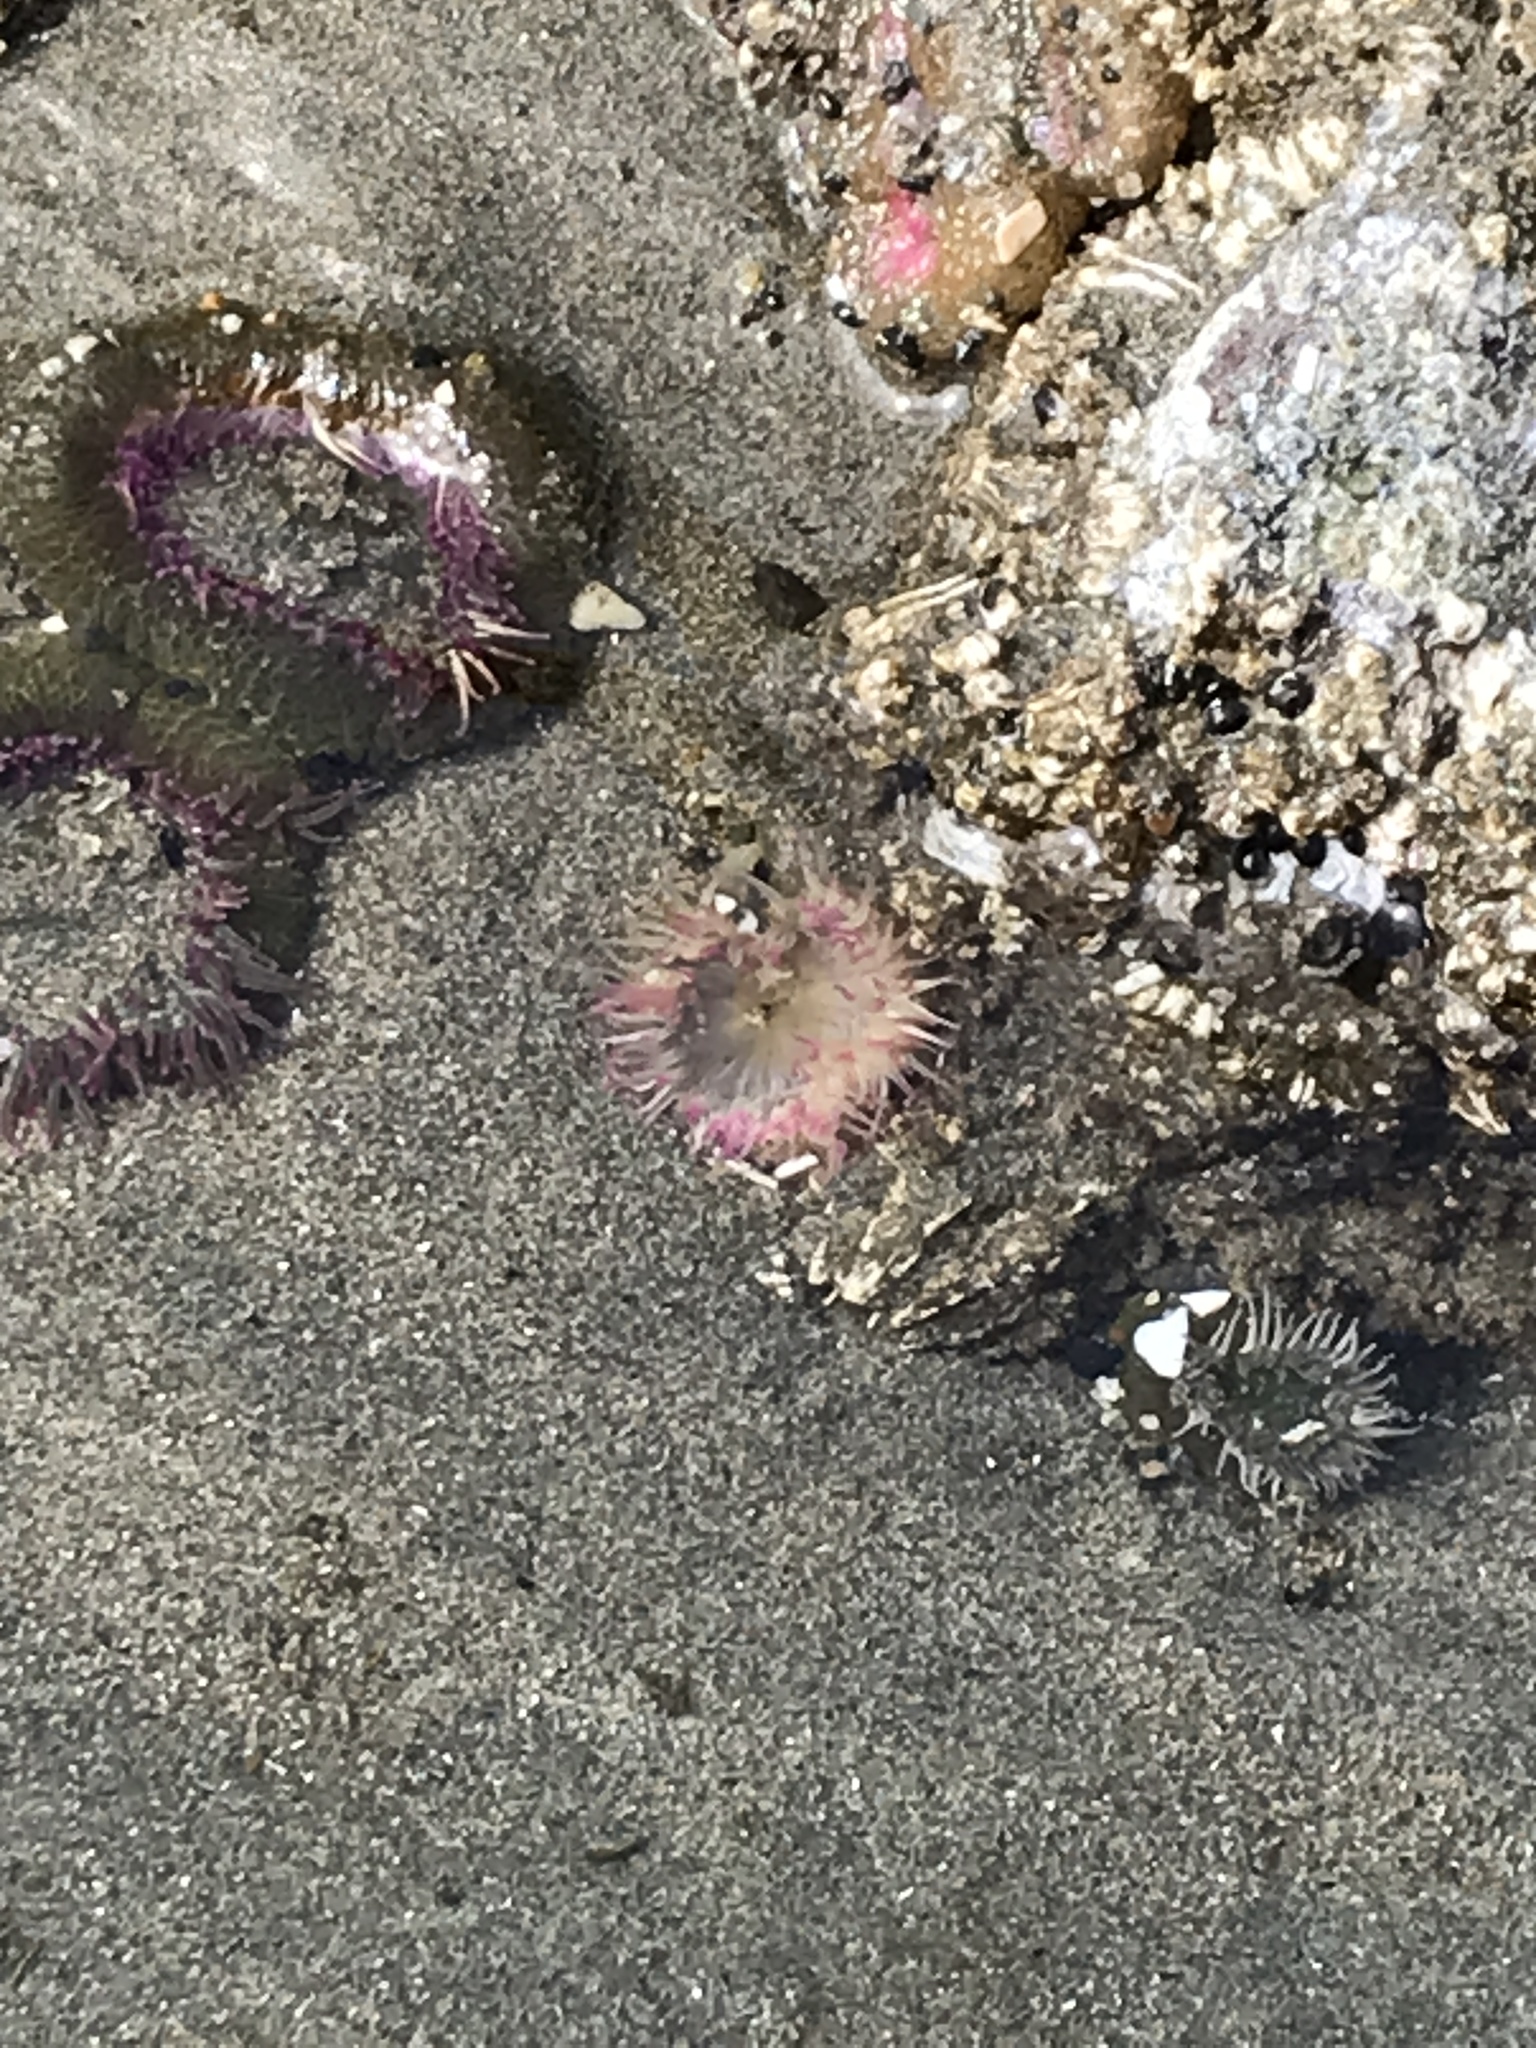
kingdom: Animalia
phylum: Cnidaria
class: Anthozoa
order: Actiniaria
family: Actiniidae
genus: Anthopleura
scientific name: Anthopleura elegantissima
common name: Clonal anemone
